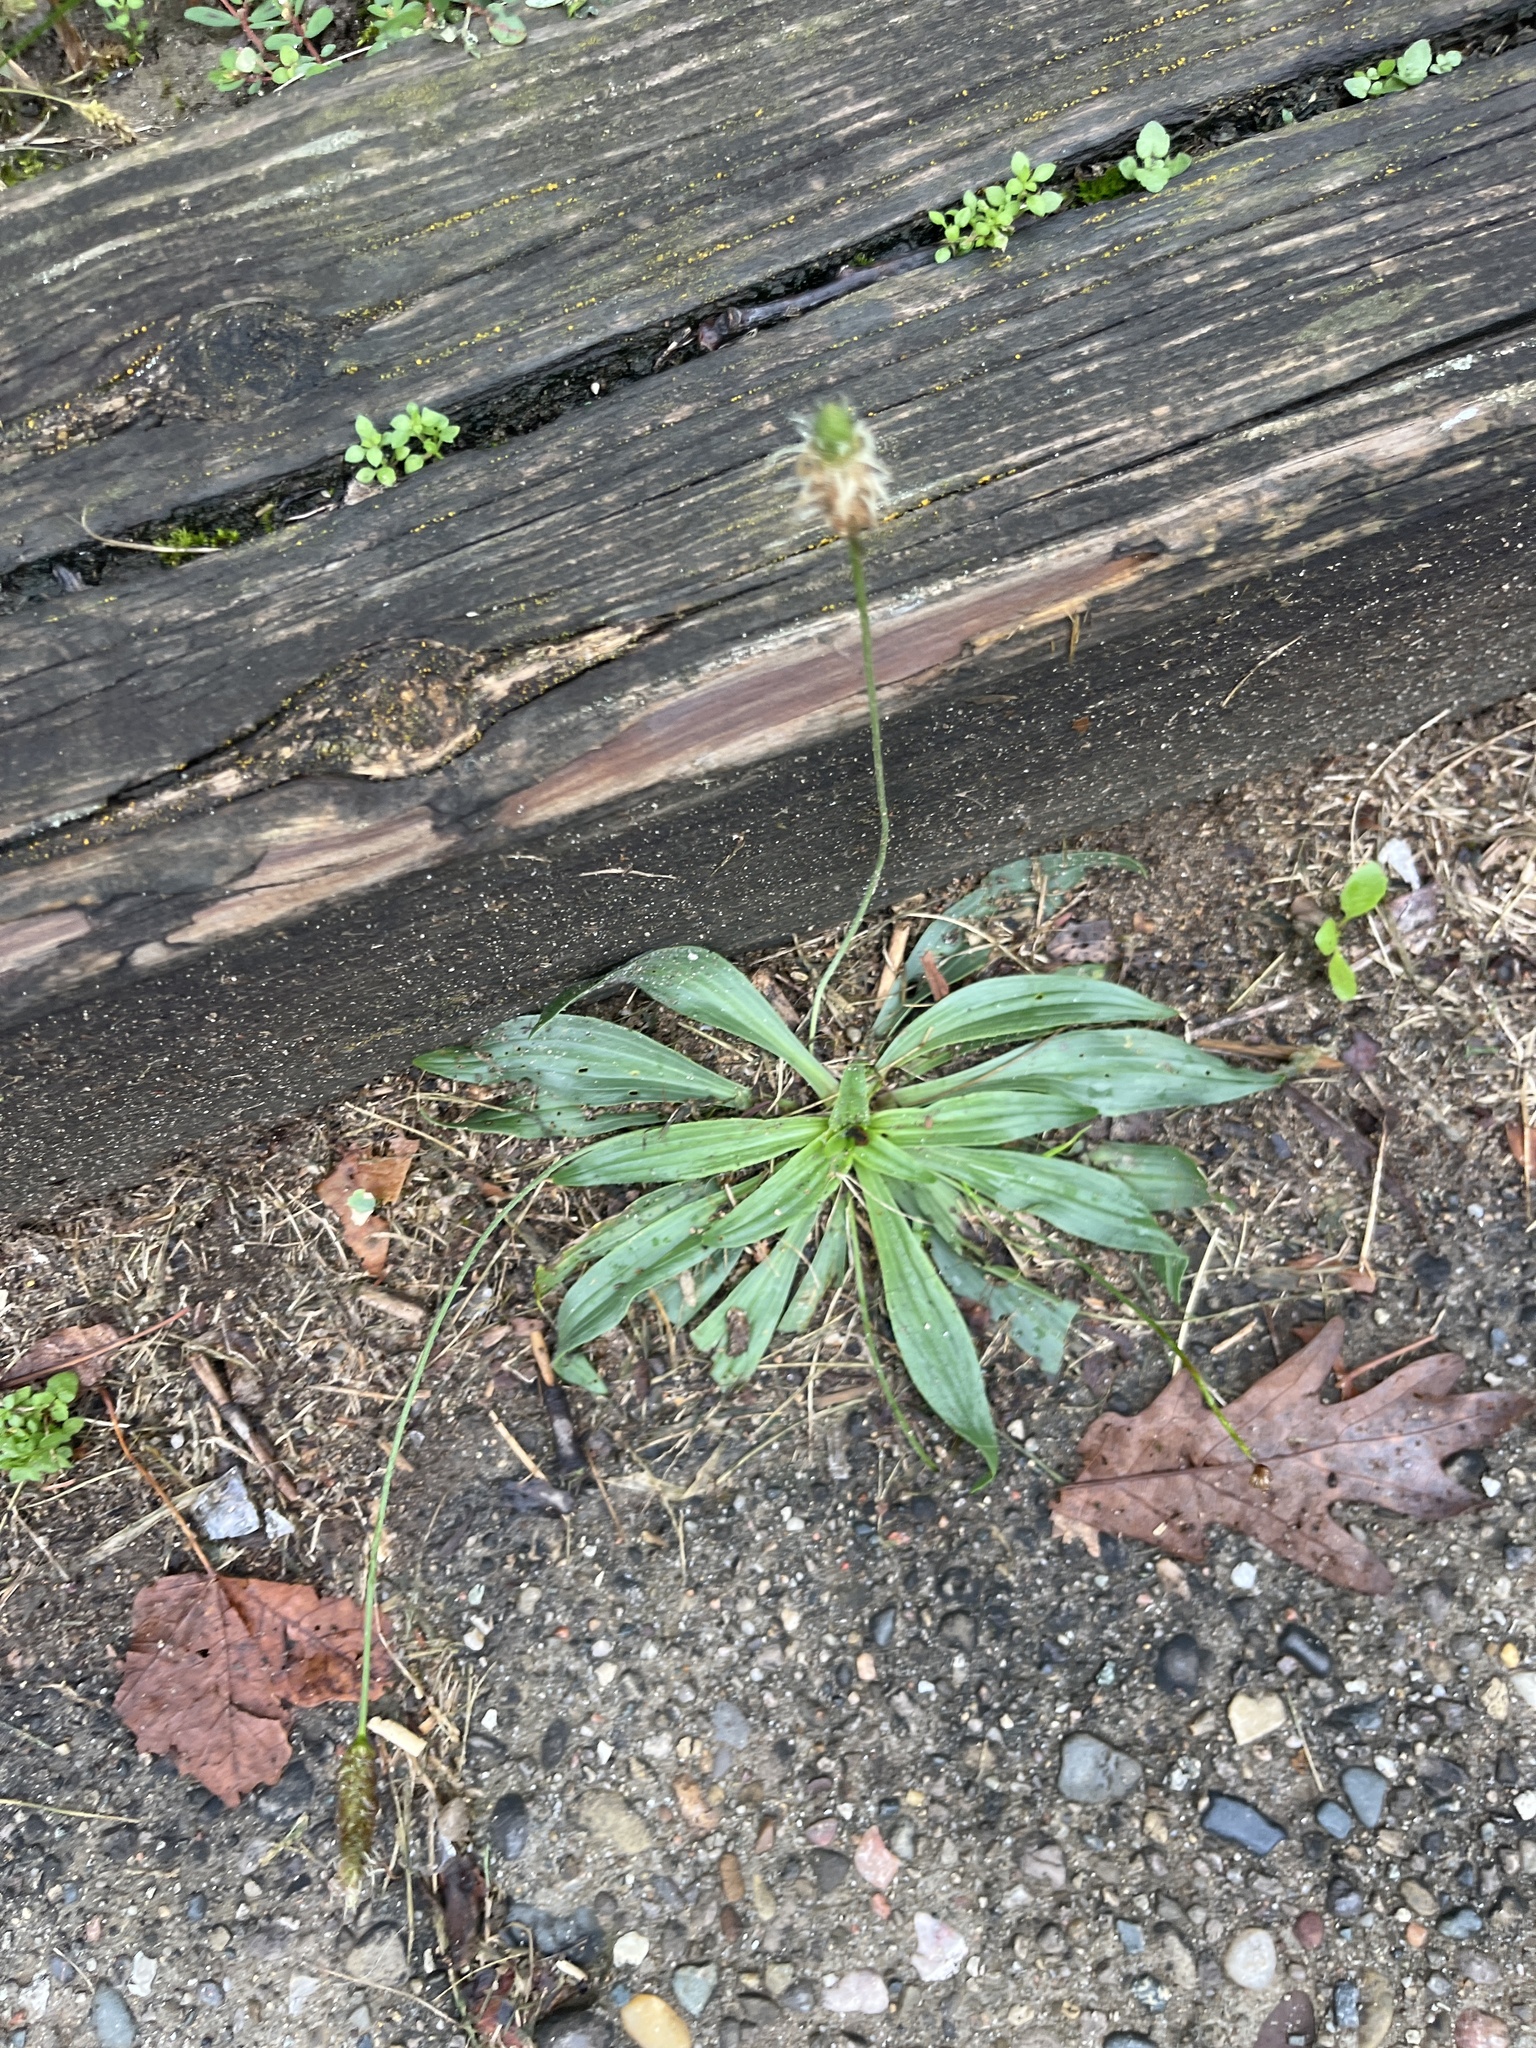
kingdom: Plantae
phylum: Tracheophyta
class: Magnoliopsida
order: Lamiales
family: Plantaginaceae
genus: Plantago
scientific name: Plantago lanceolata
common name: Ribwort plantain
